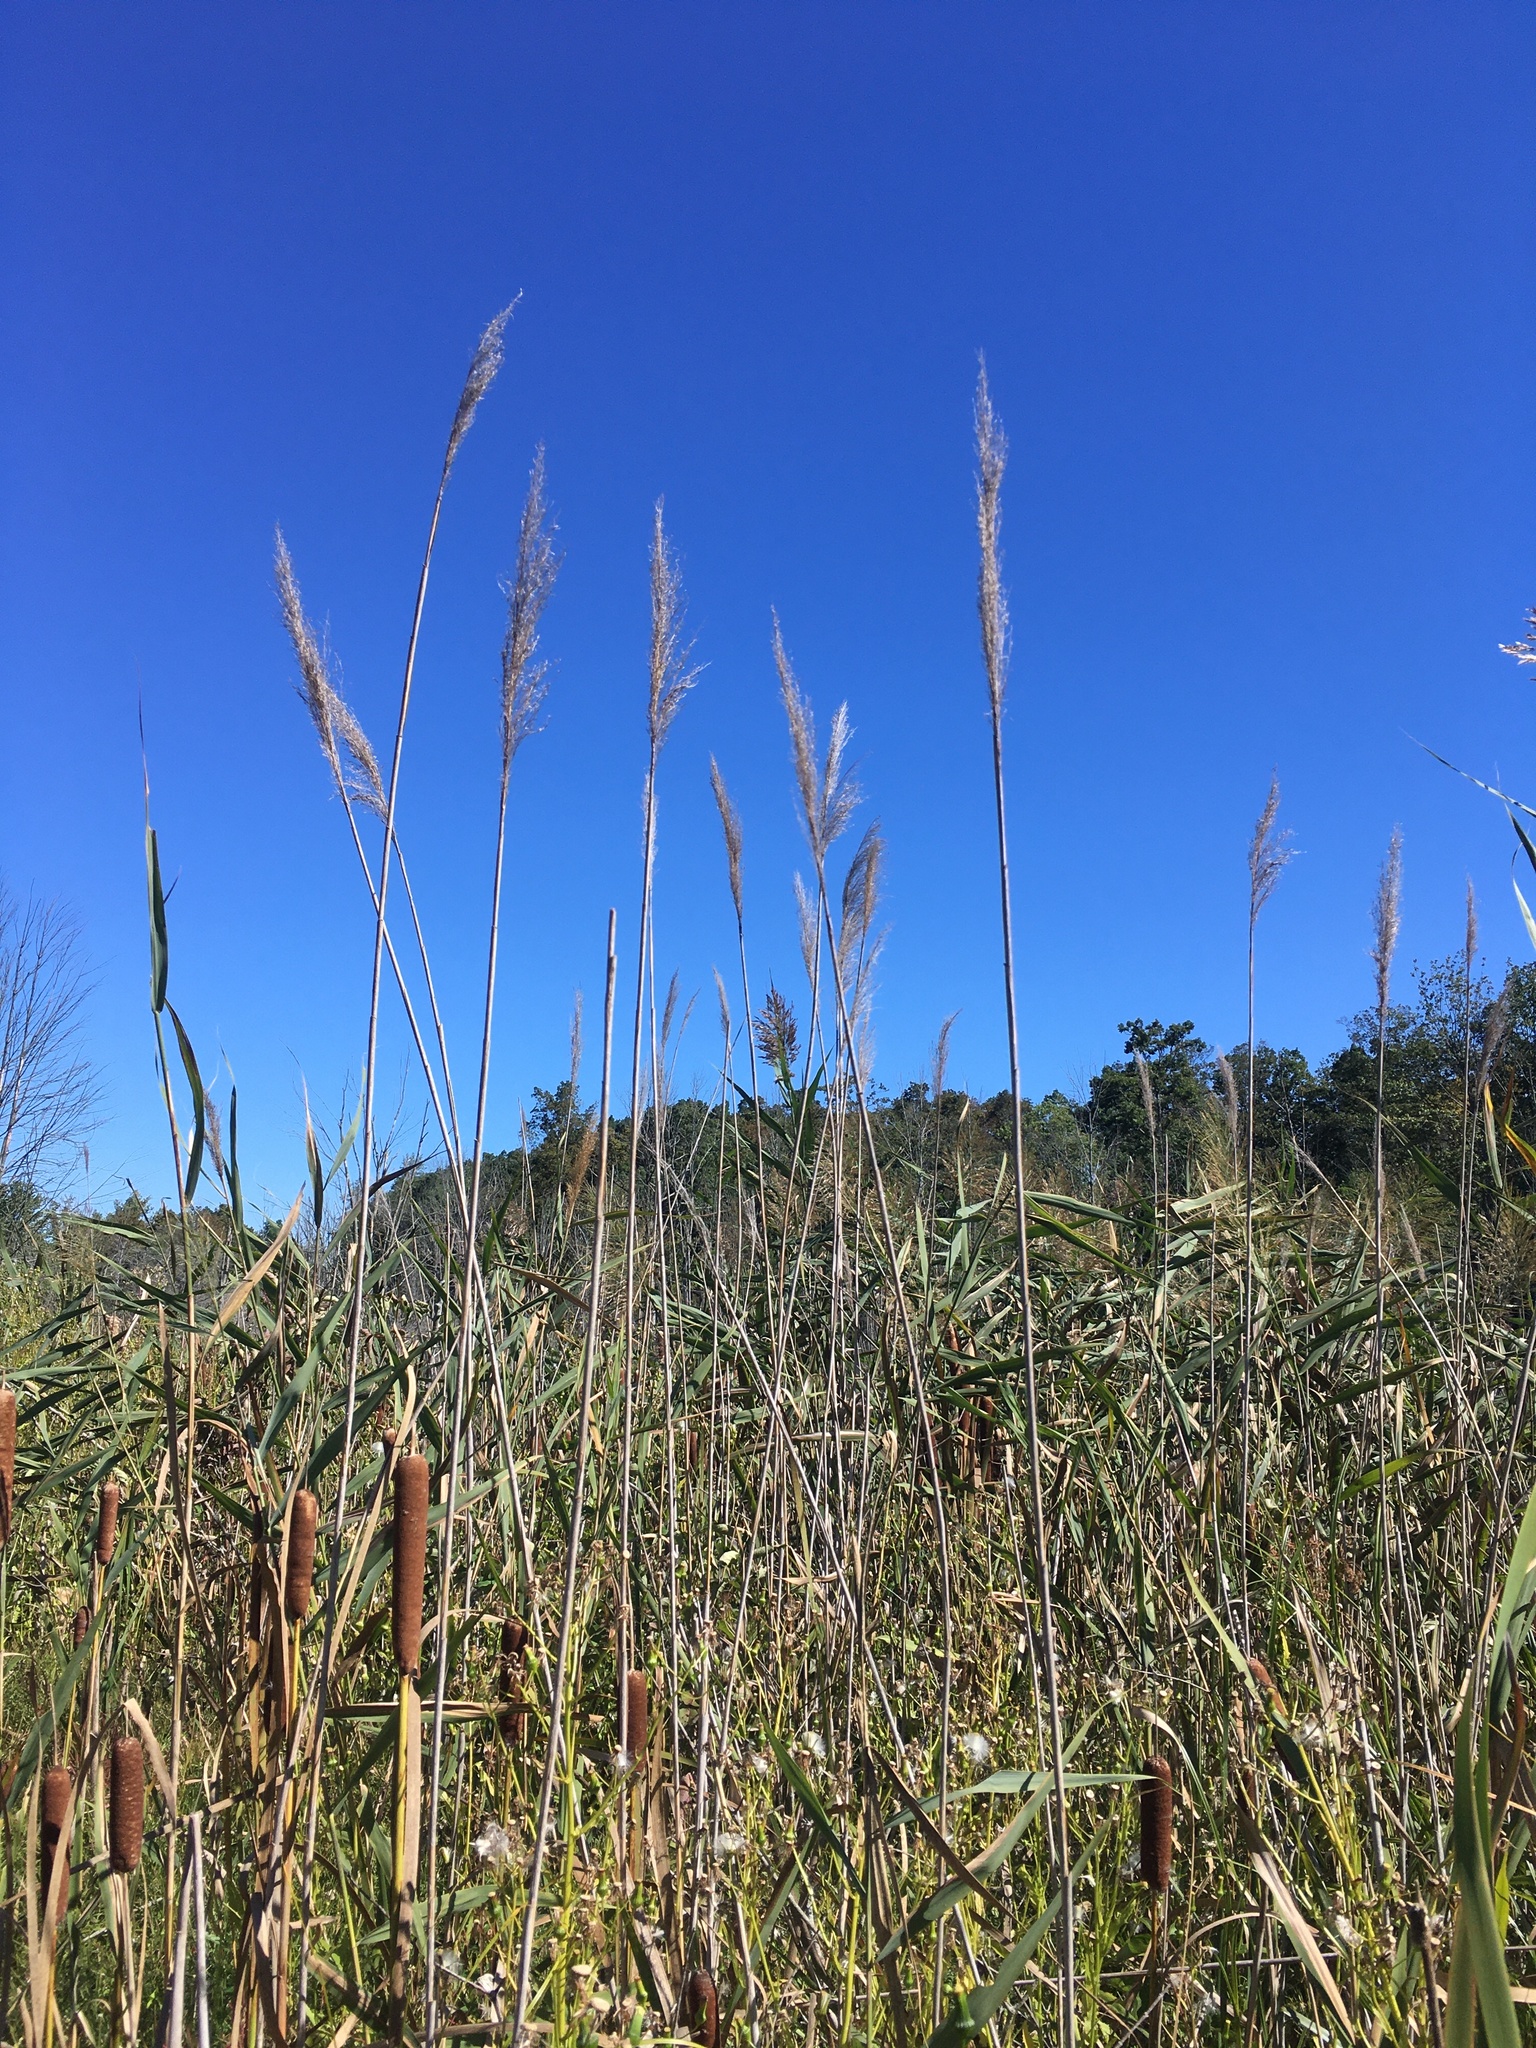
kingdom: Plantae
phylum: Tracheophyta
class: Liliopsida
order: Poales
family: Poaceae
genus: Phragmites
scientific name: Phragmites australis
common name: Common reed
